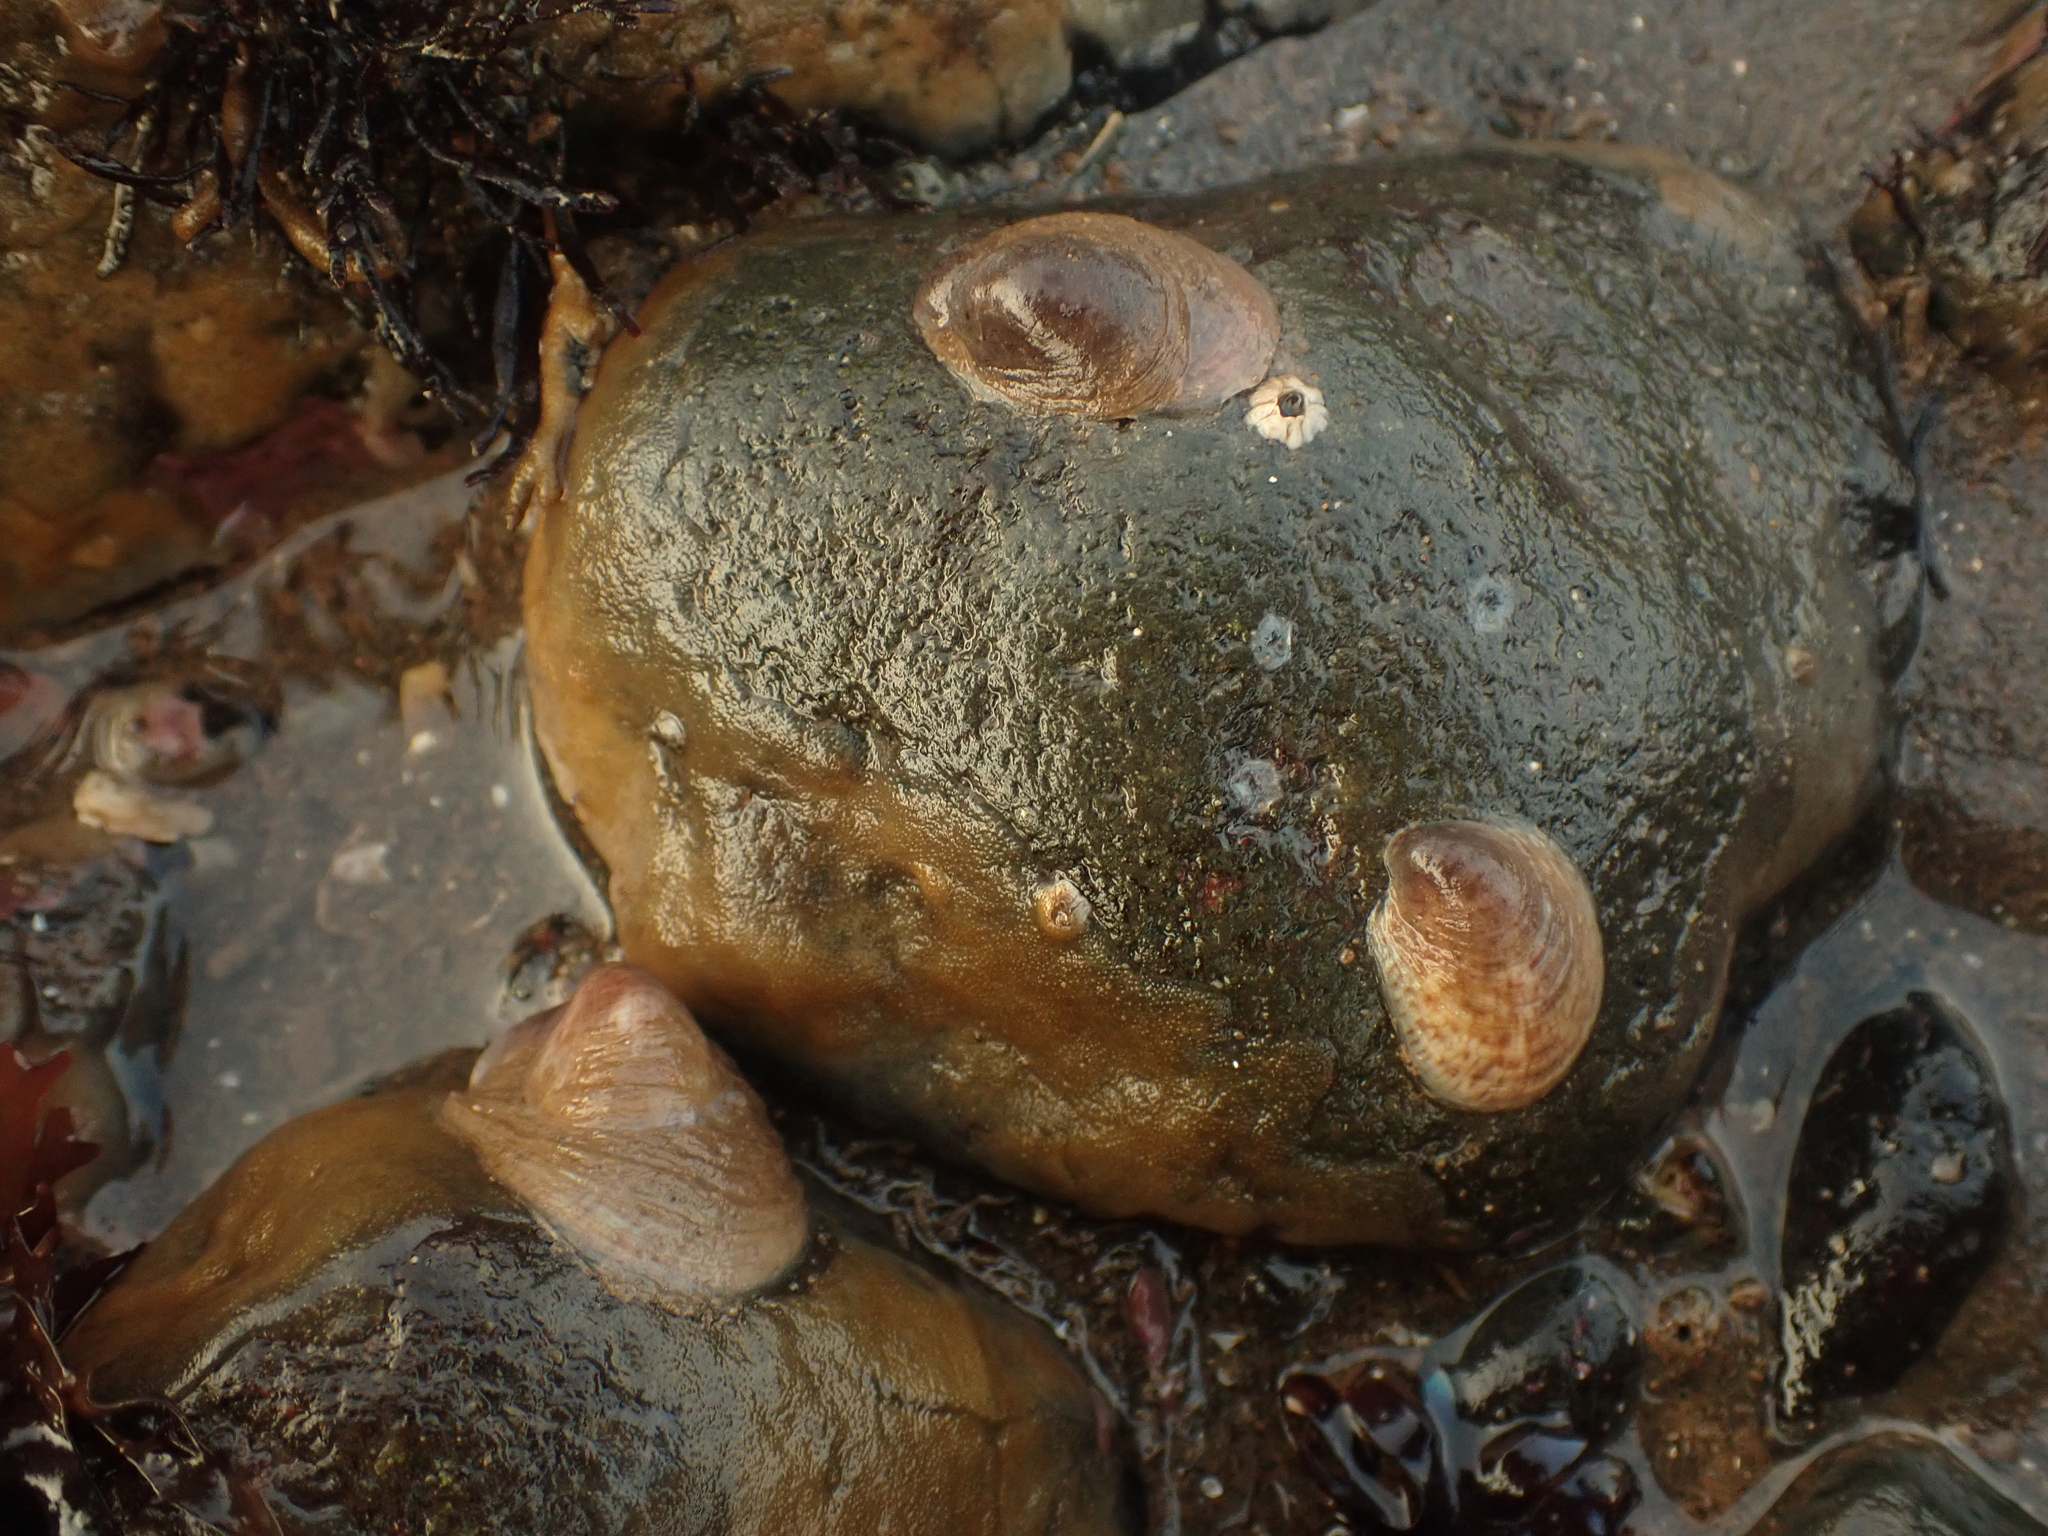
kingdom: Animalia
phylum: Mollusca
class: Gastropoda
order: Littorinimorpha
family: Calyptraeidae
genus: Crepidula
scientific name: Crepidula fornicata
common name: Slipper limpet
